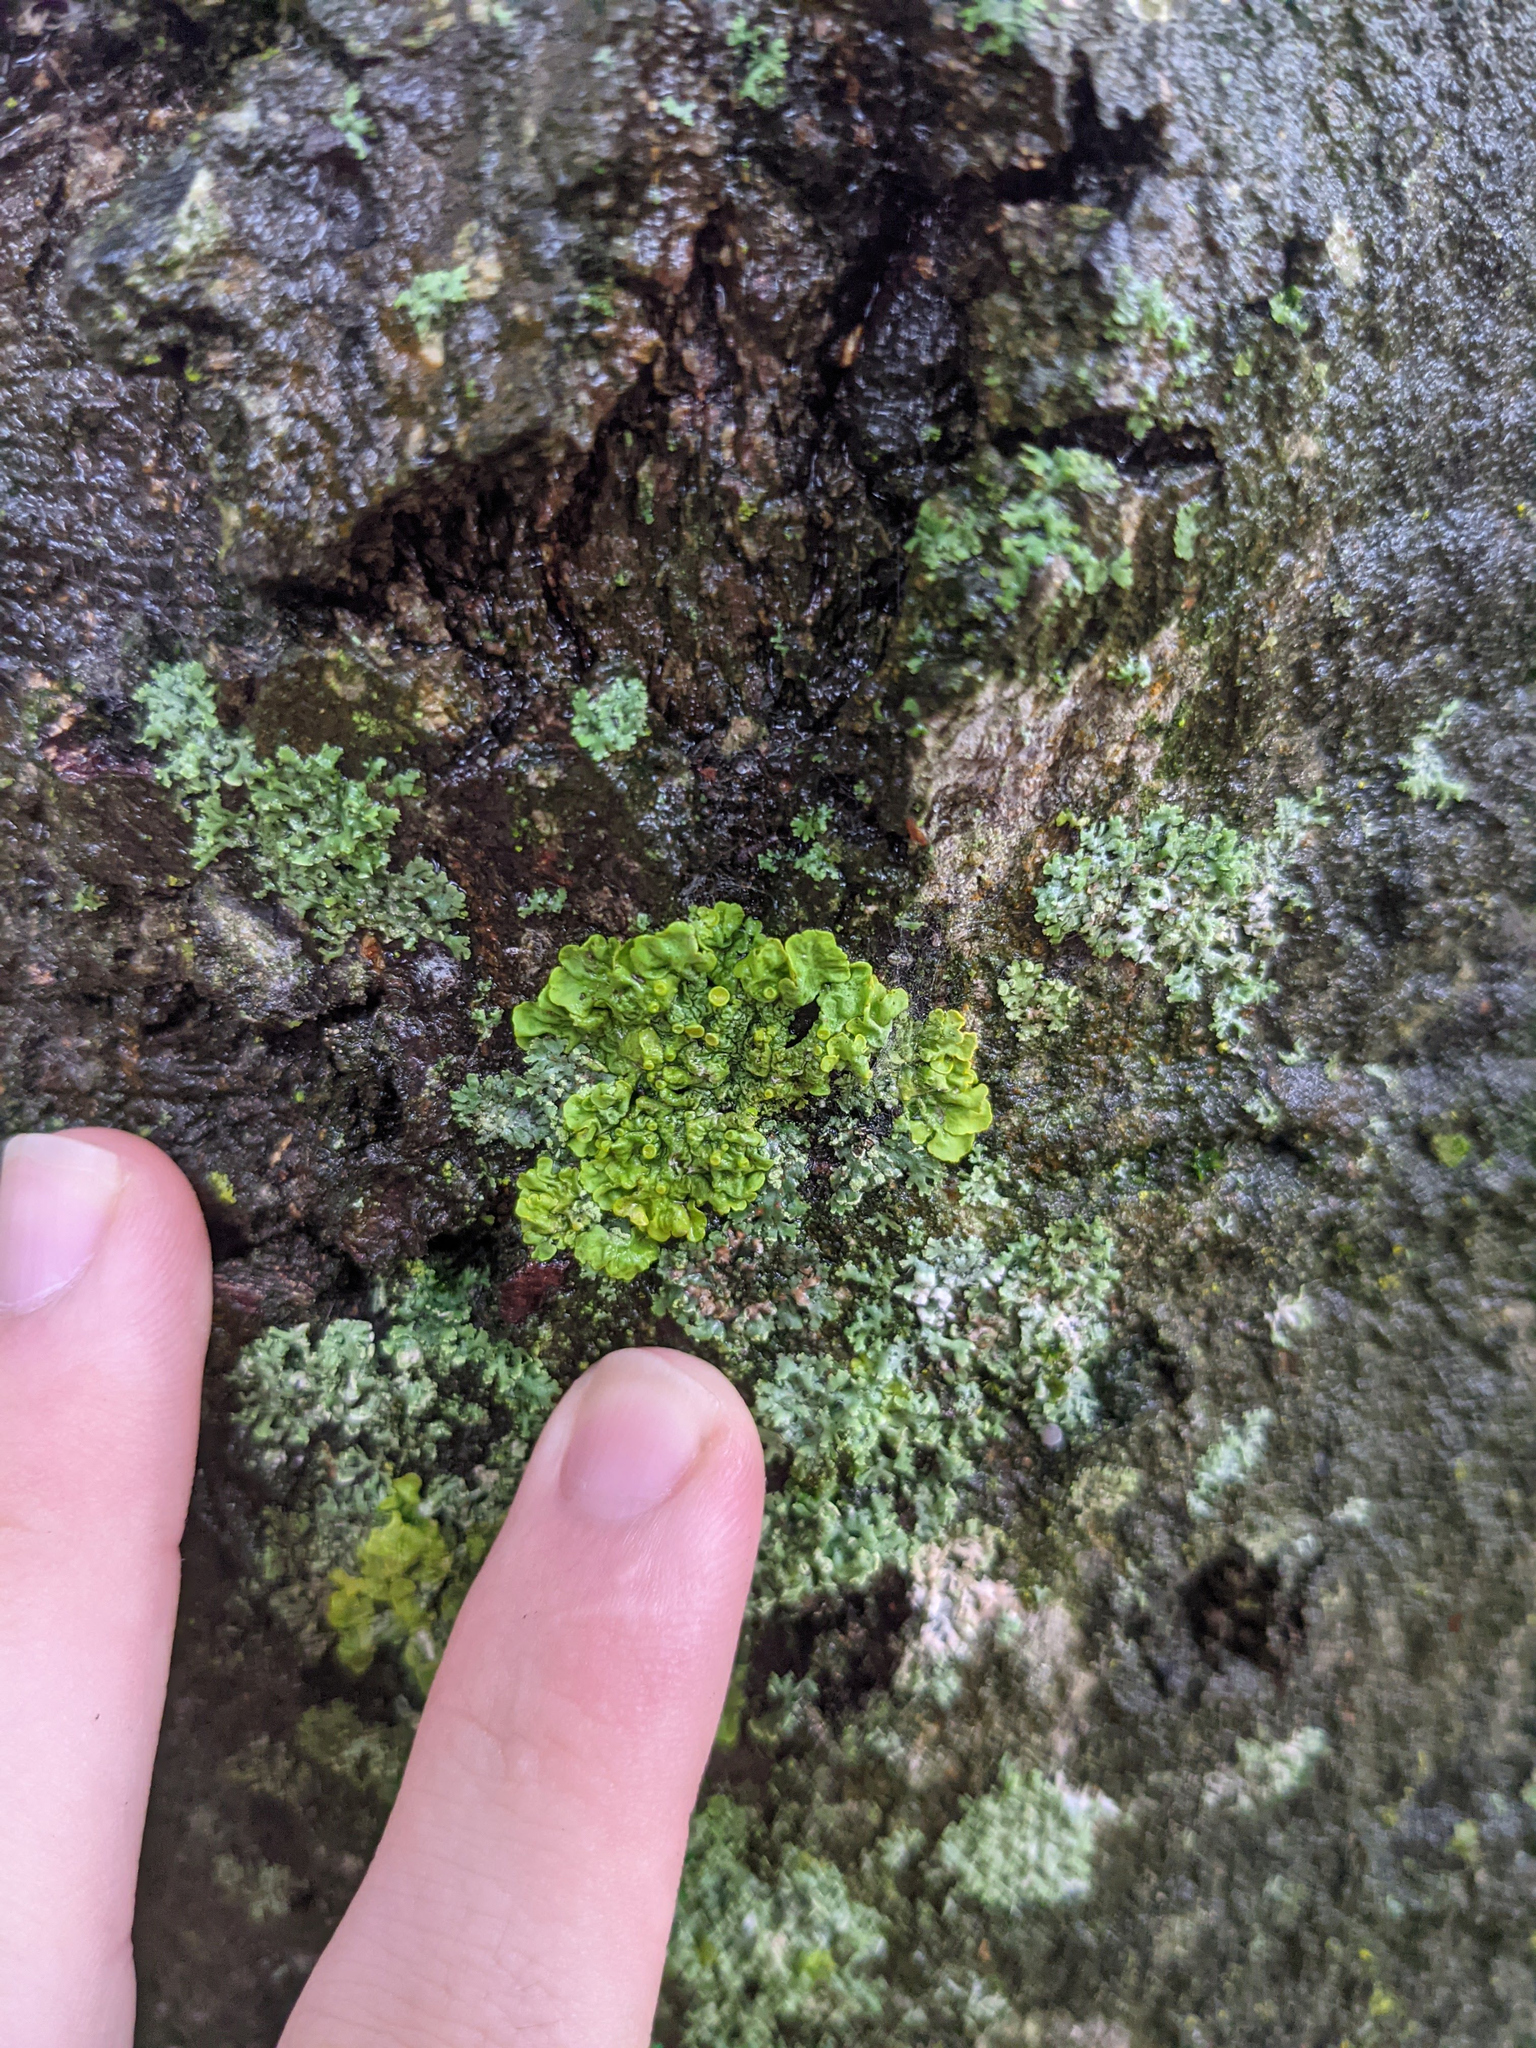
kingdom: Fungi
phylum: Ascomycota
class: Lecanoromycetes
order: Teloschistales
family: Teloschistaceae
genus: Xanthoria
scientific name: Xanthoria parietina
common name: Common orange lichen
